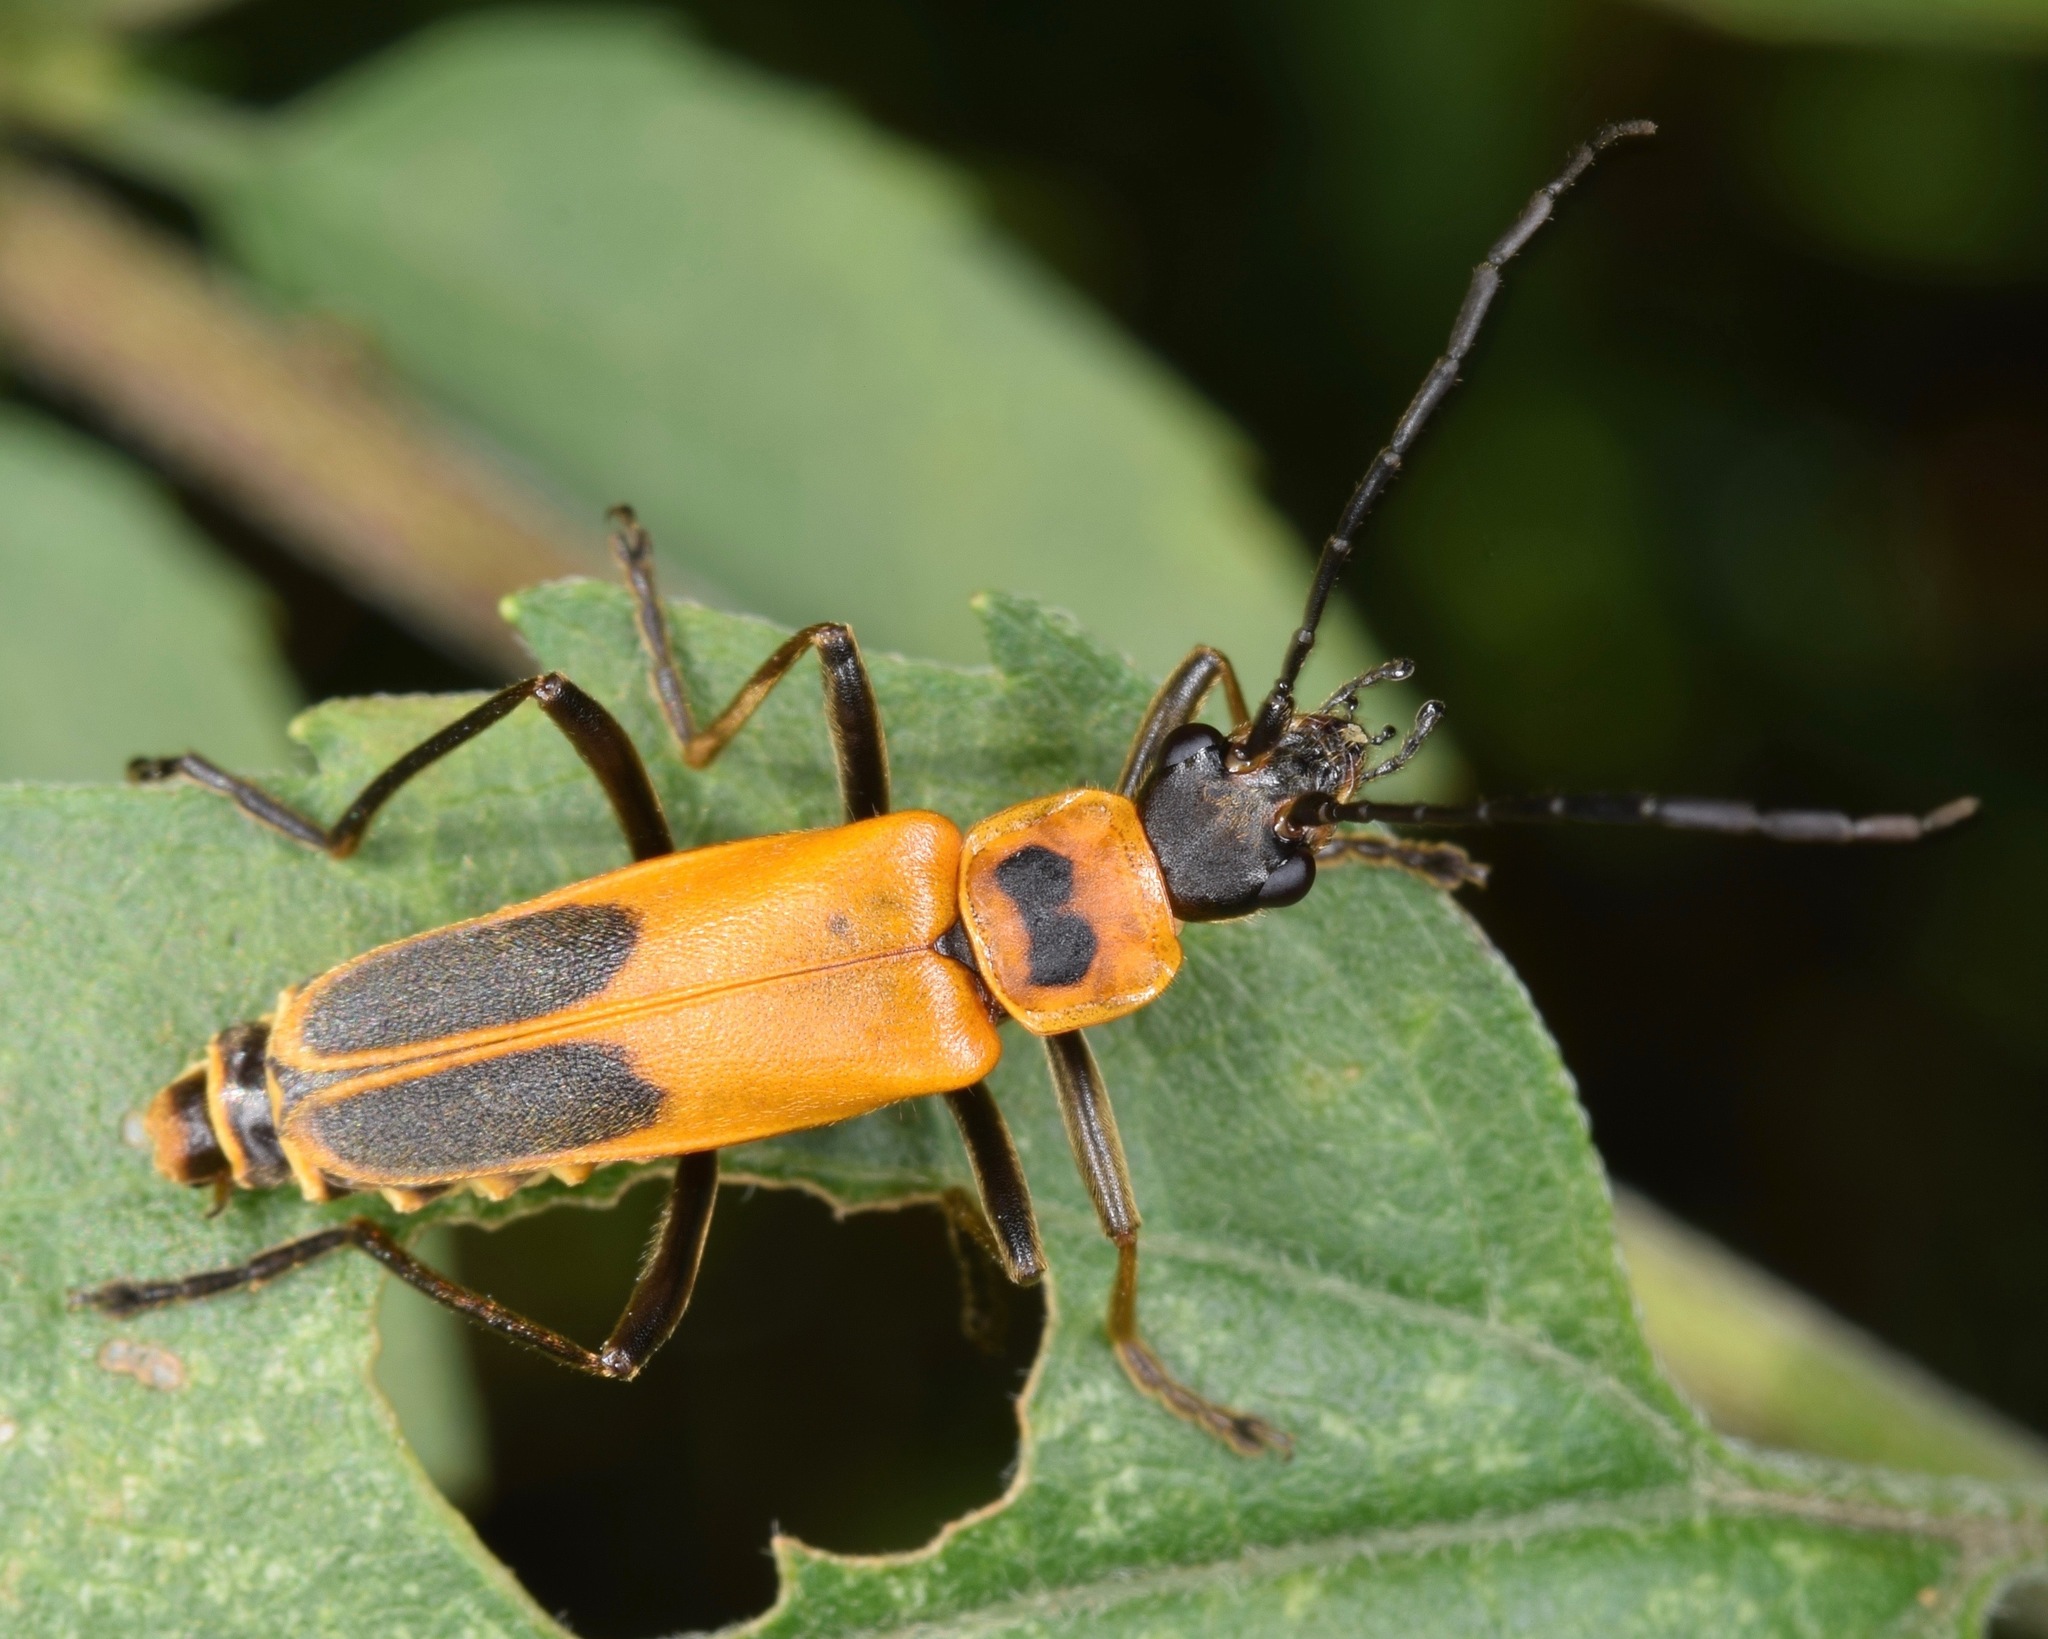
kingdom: Animalia
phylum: Arthropoda
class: Insecta
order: Coleoptera
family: Cantharidae
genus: Chauliognathus
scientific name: Chauliognathus pensylvanicus
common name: Goldenrod soldier beetle
